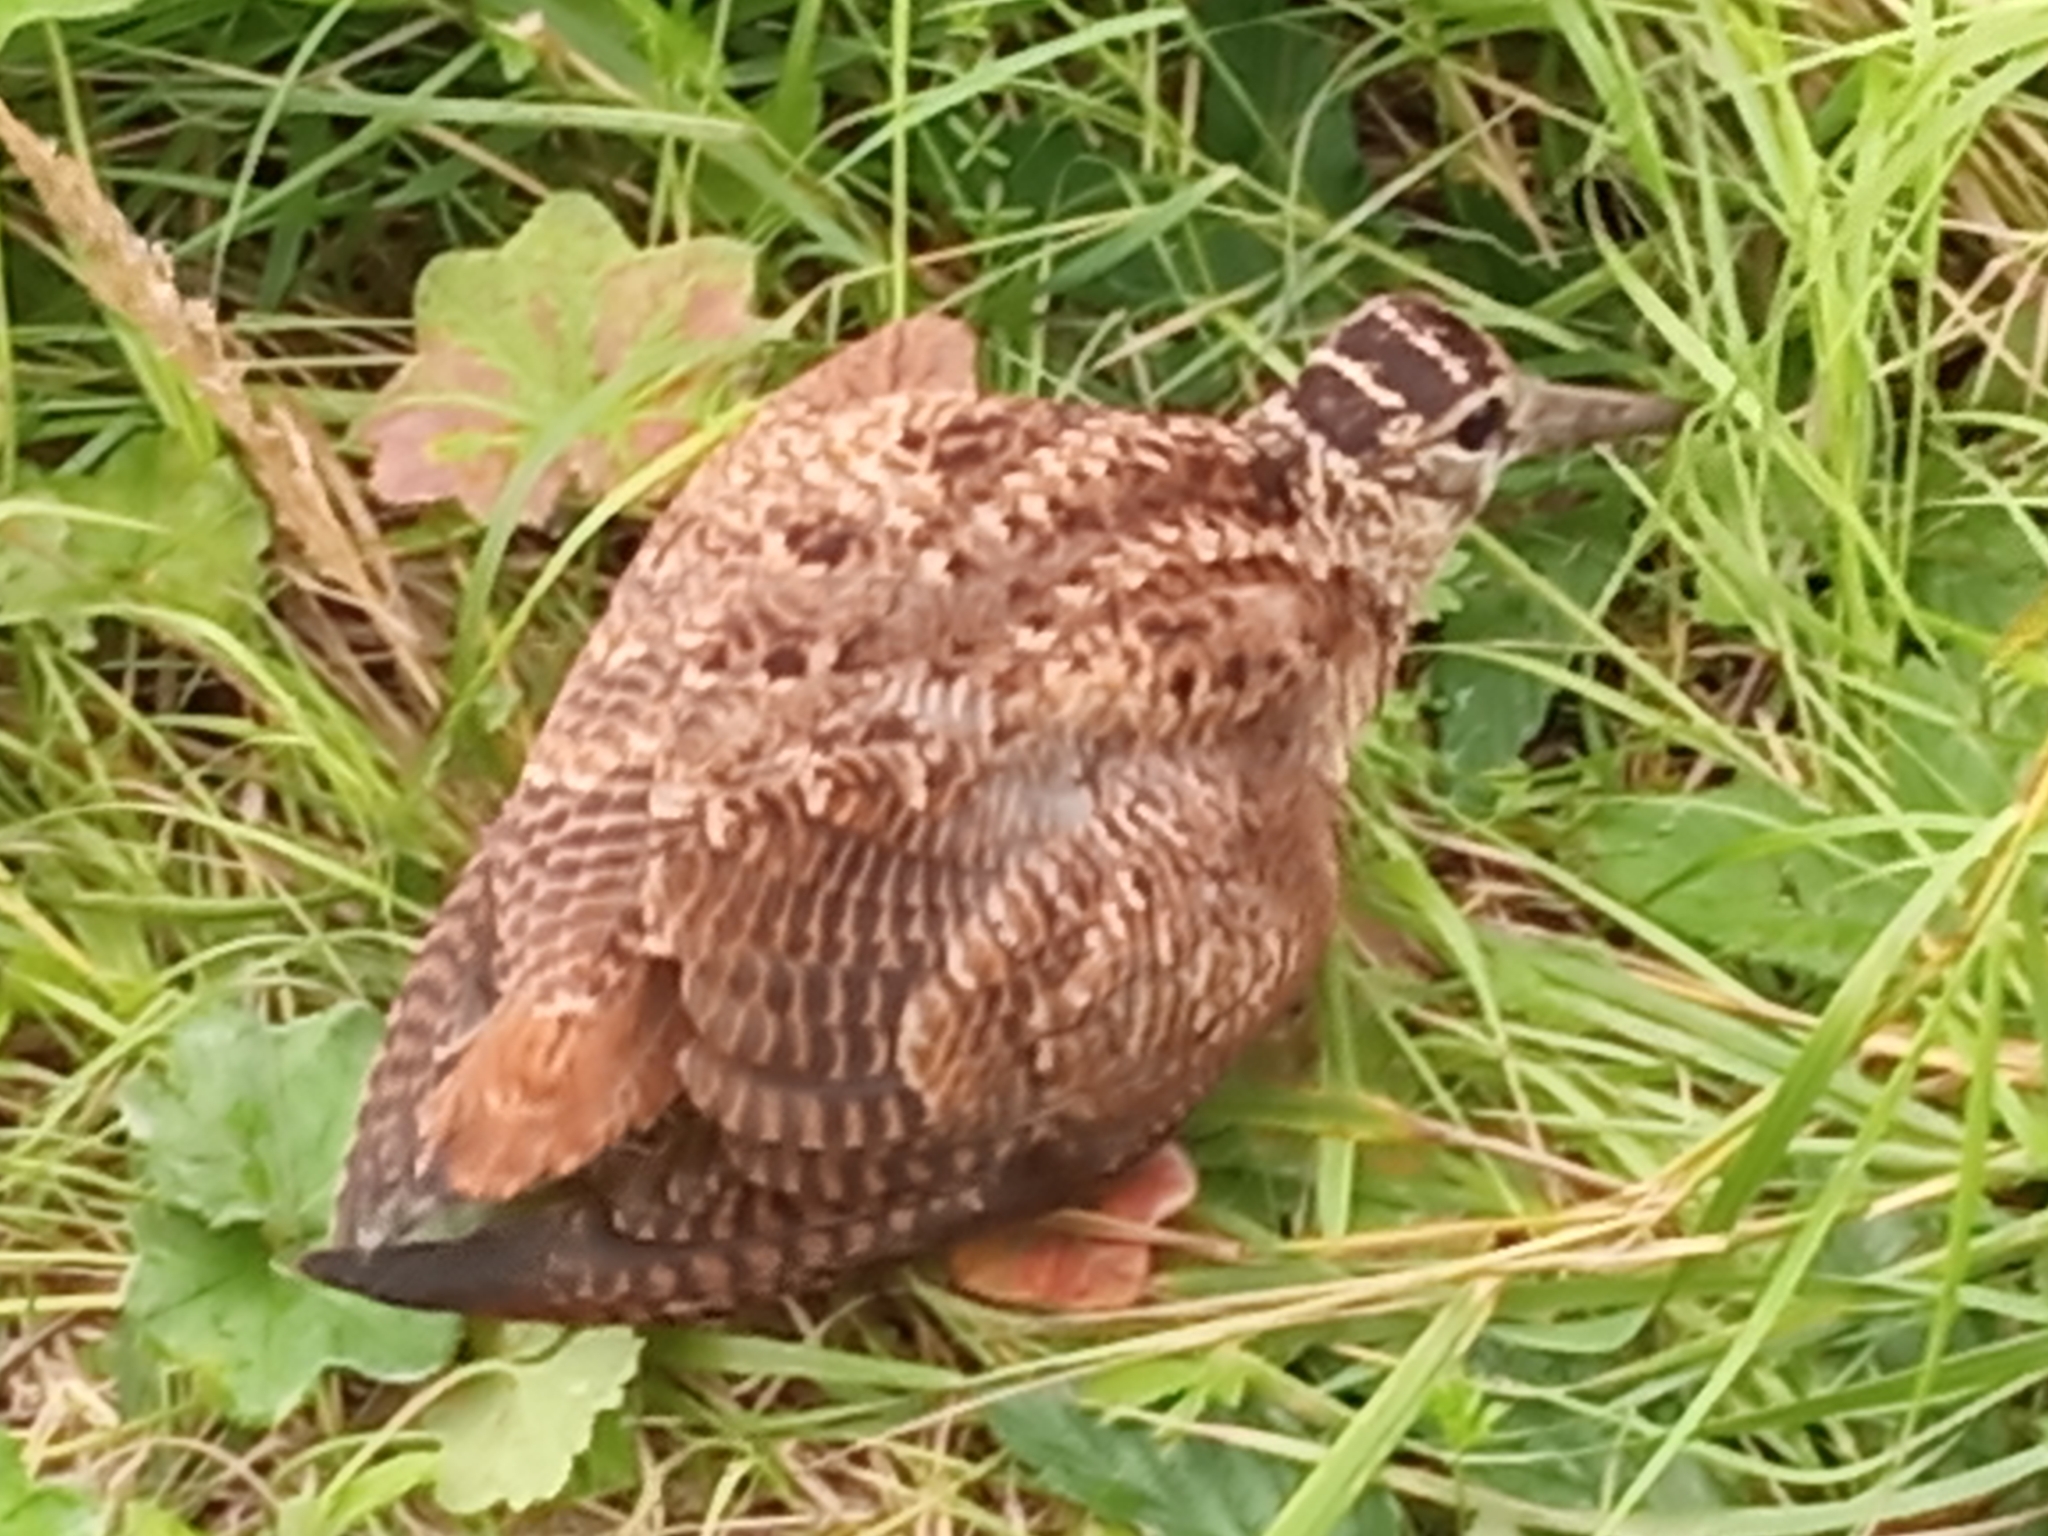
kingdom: Animalia
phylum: Chordata
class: Aves
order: Charadriiformes
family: Scolopacidae
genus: Scolopax
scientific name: Scolopax rusticola
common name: Eurasian woodcock
